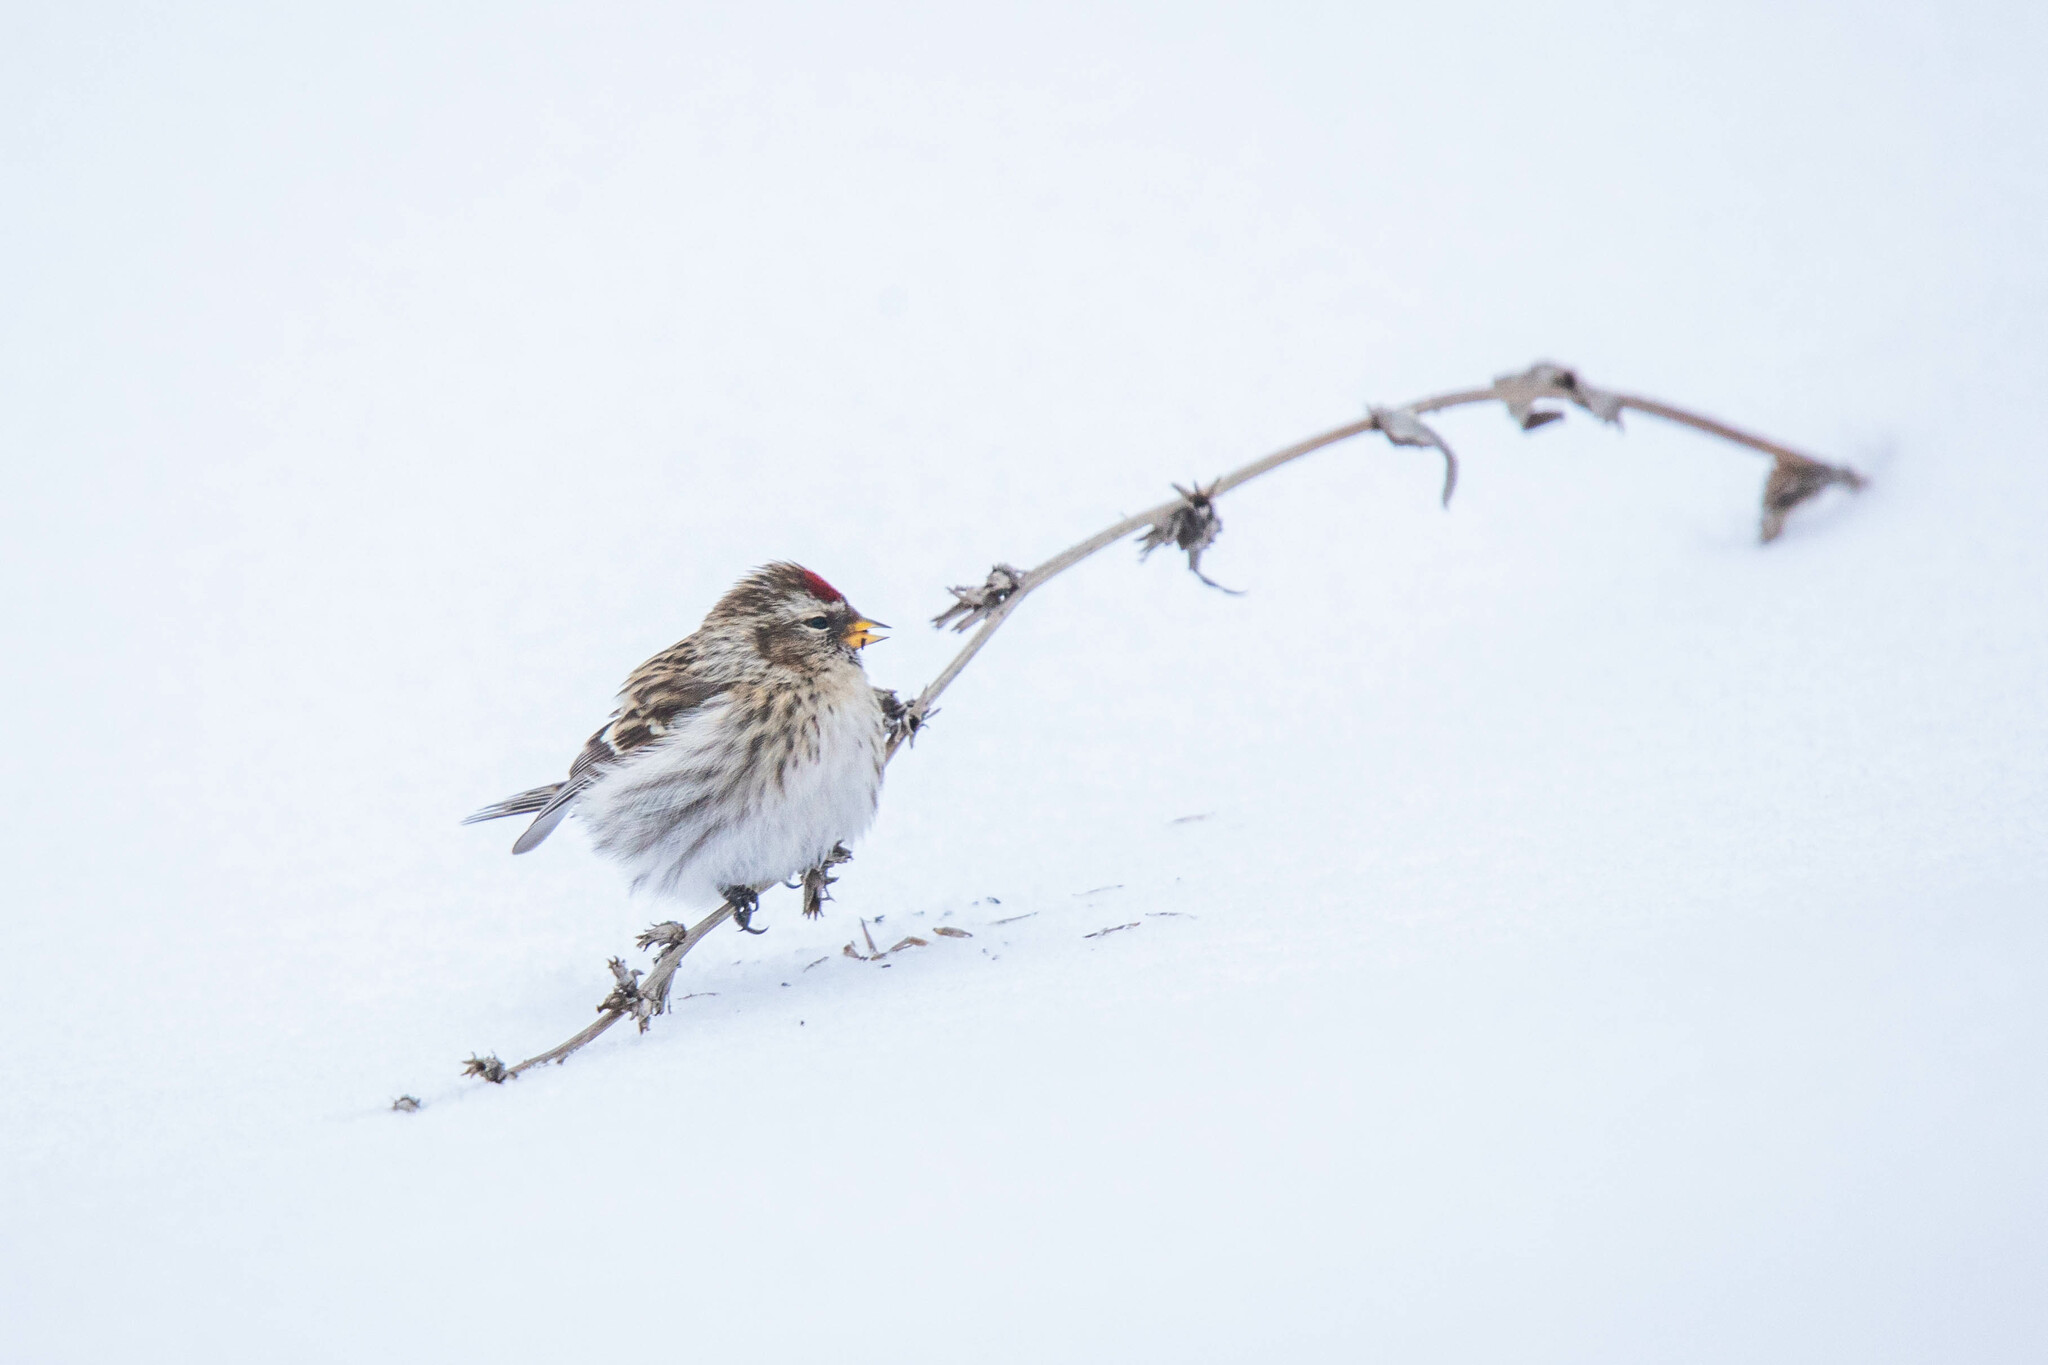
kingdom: Animalia
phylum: Chordata
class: Aves
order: Passeriformes
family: Fringillidae
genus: Acanthis
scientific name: Acanthis flammea
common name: Common redpoll
